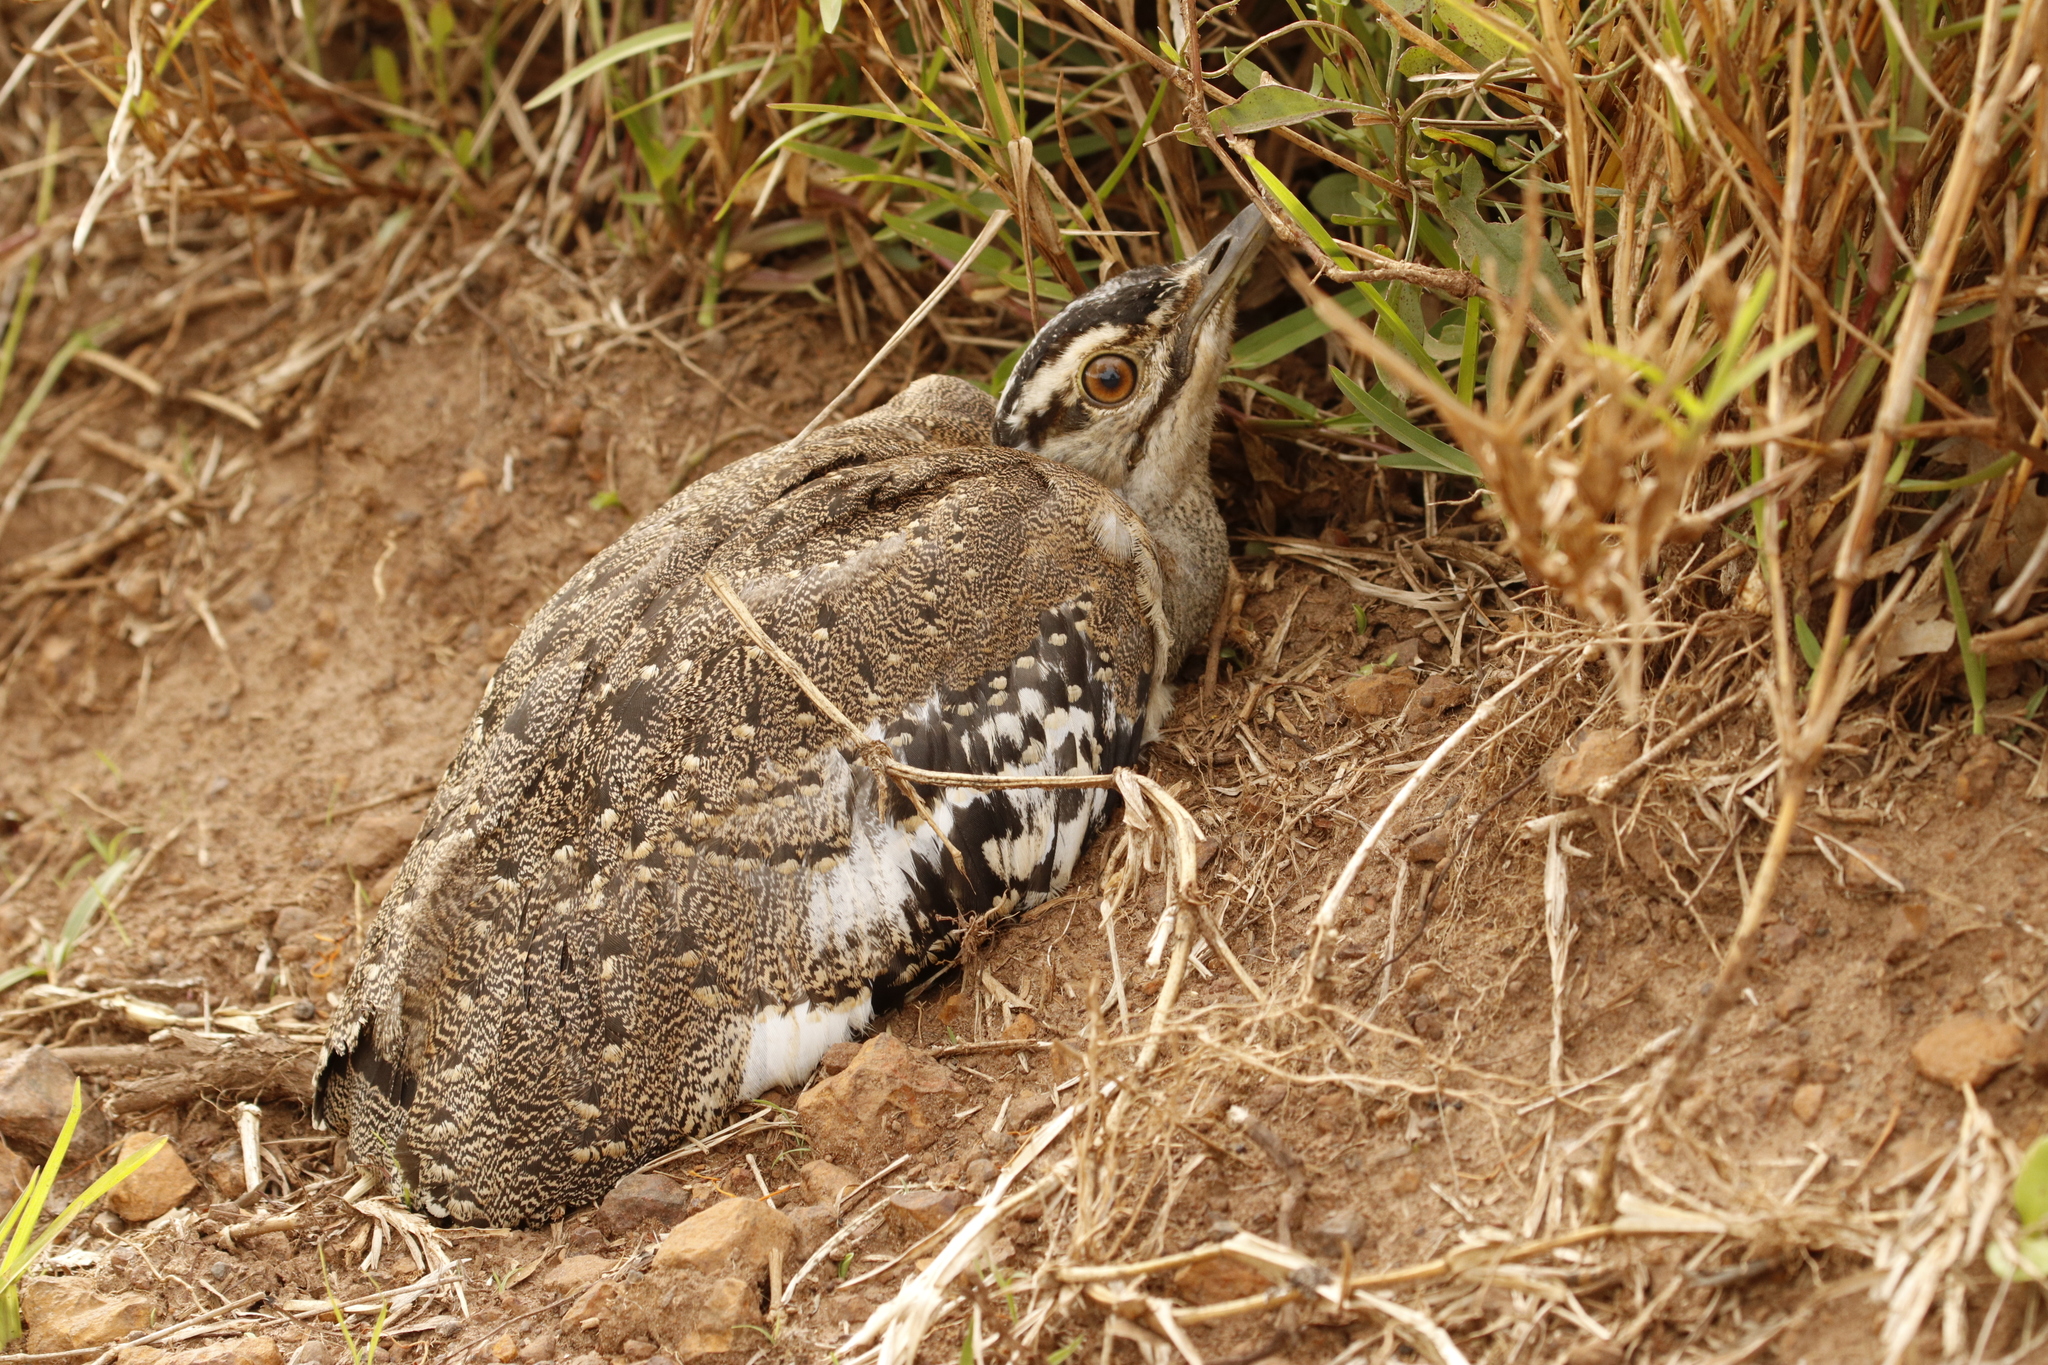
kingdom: Animalia
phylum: Chordata
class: Aves
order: Otidiformes
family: Otididae
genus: Neotis
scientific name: Neotis denhami
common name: Denham's bustard
